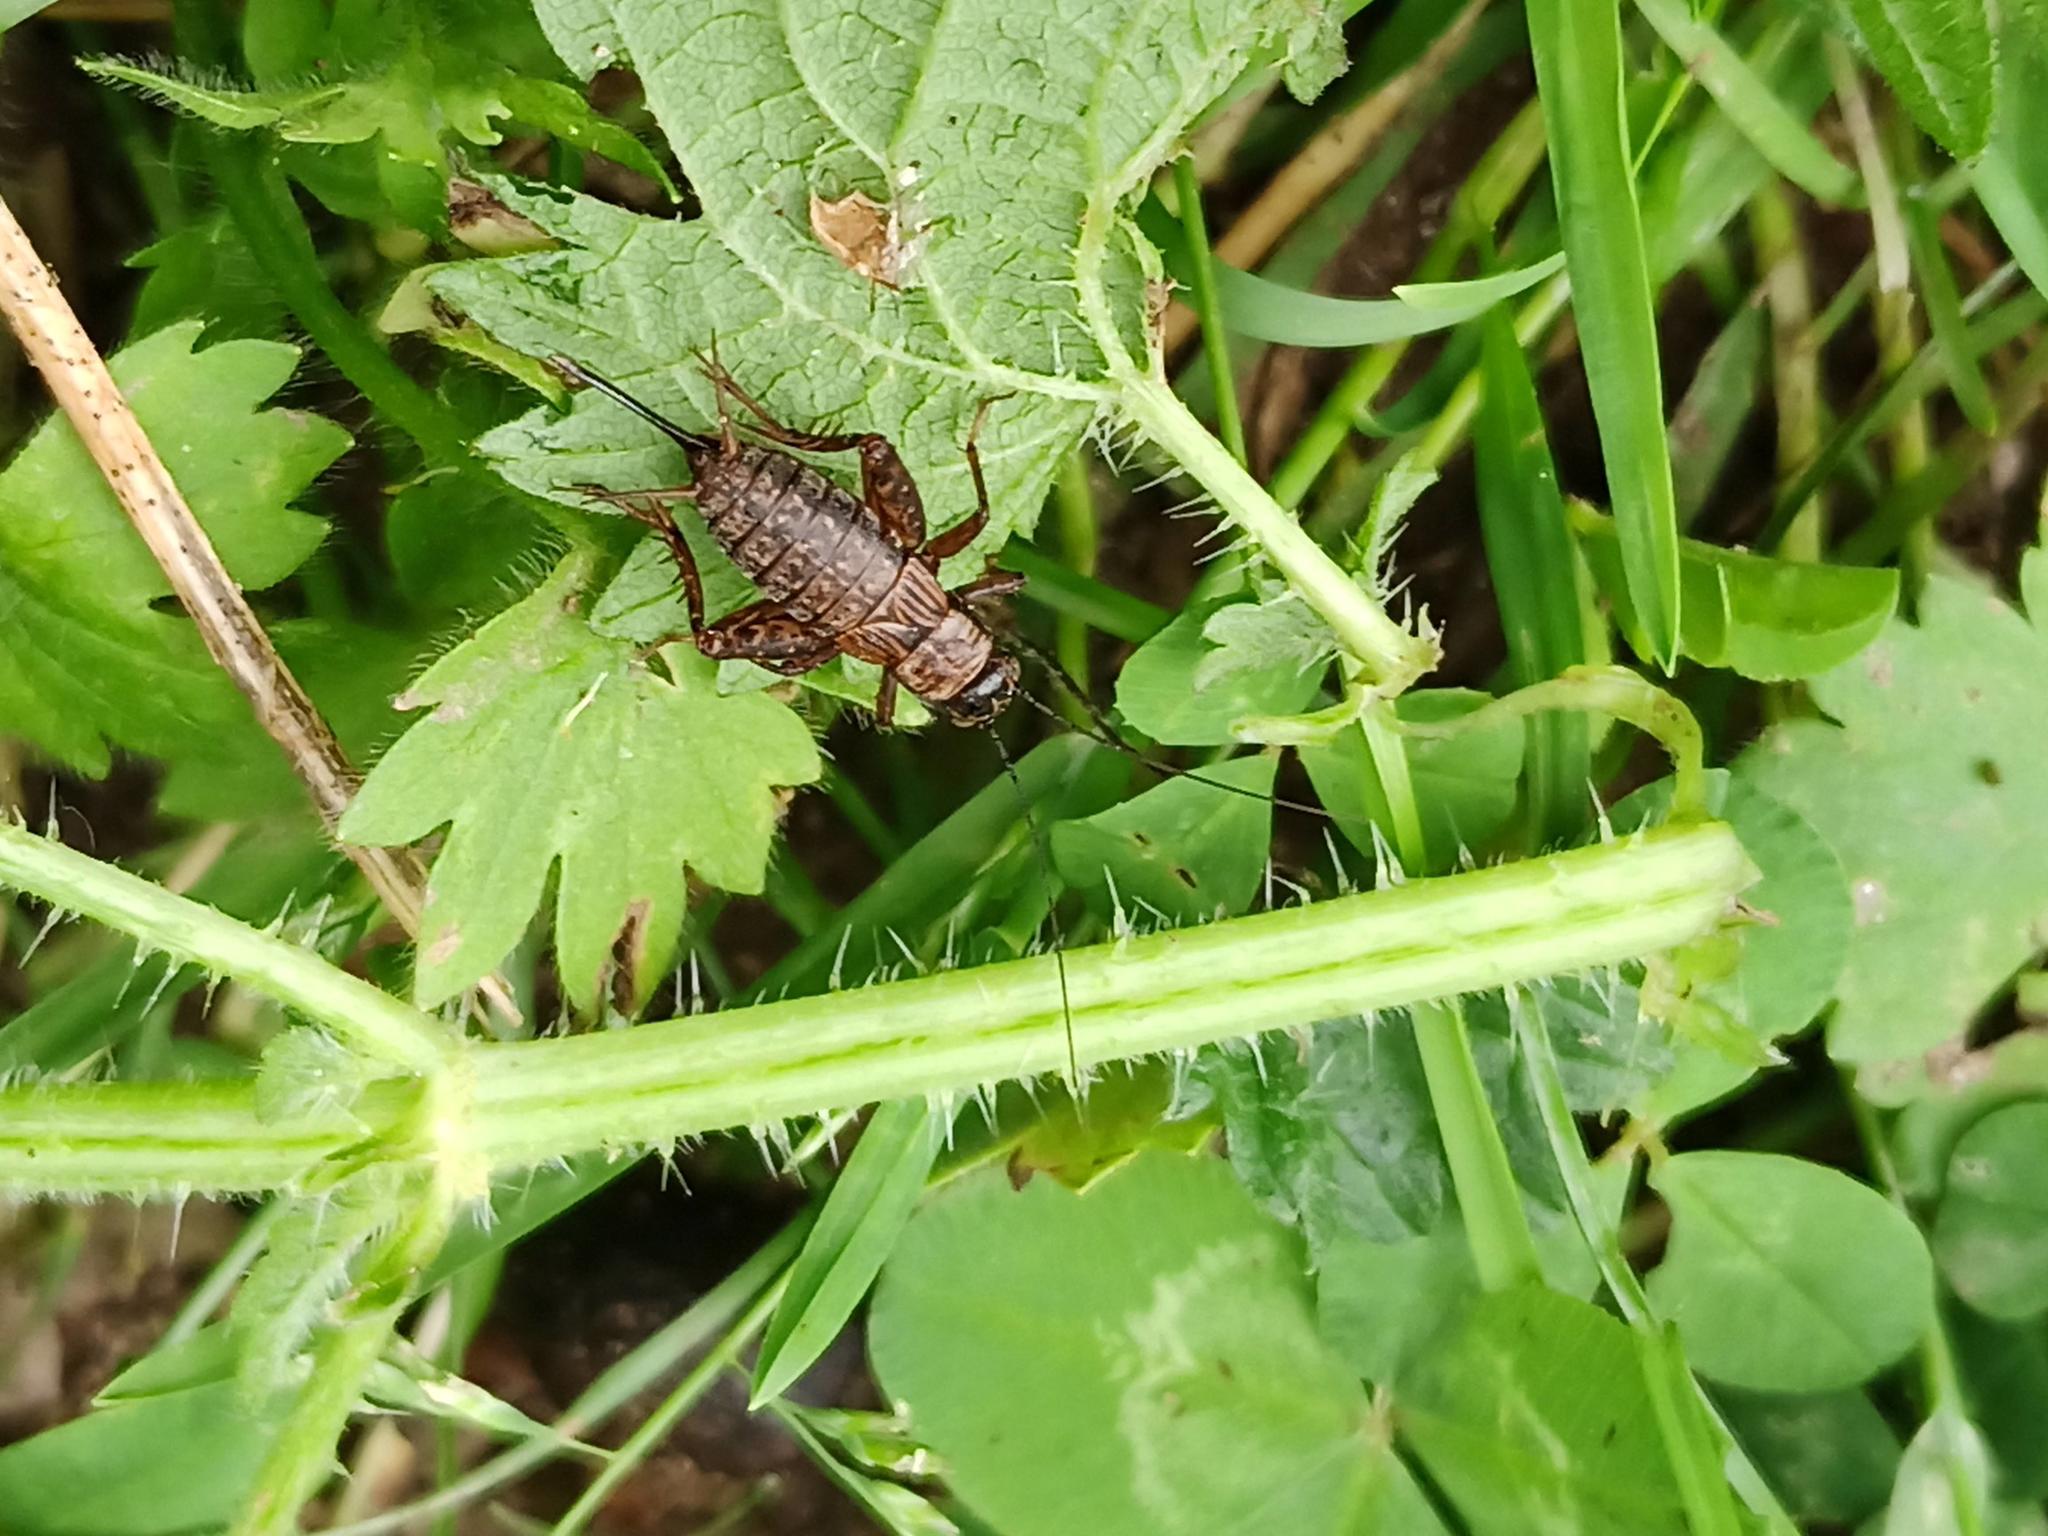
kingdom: Animalia
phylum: Arthropoda
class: Insecta
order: Orthoptera
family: Trigonidiidae
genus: Nemobius
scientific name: Nemobius sylvestris
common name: Wood-cricket
